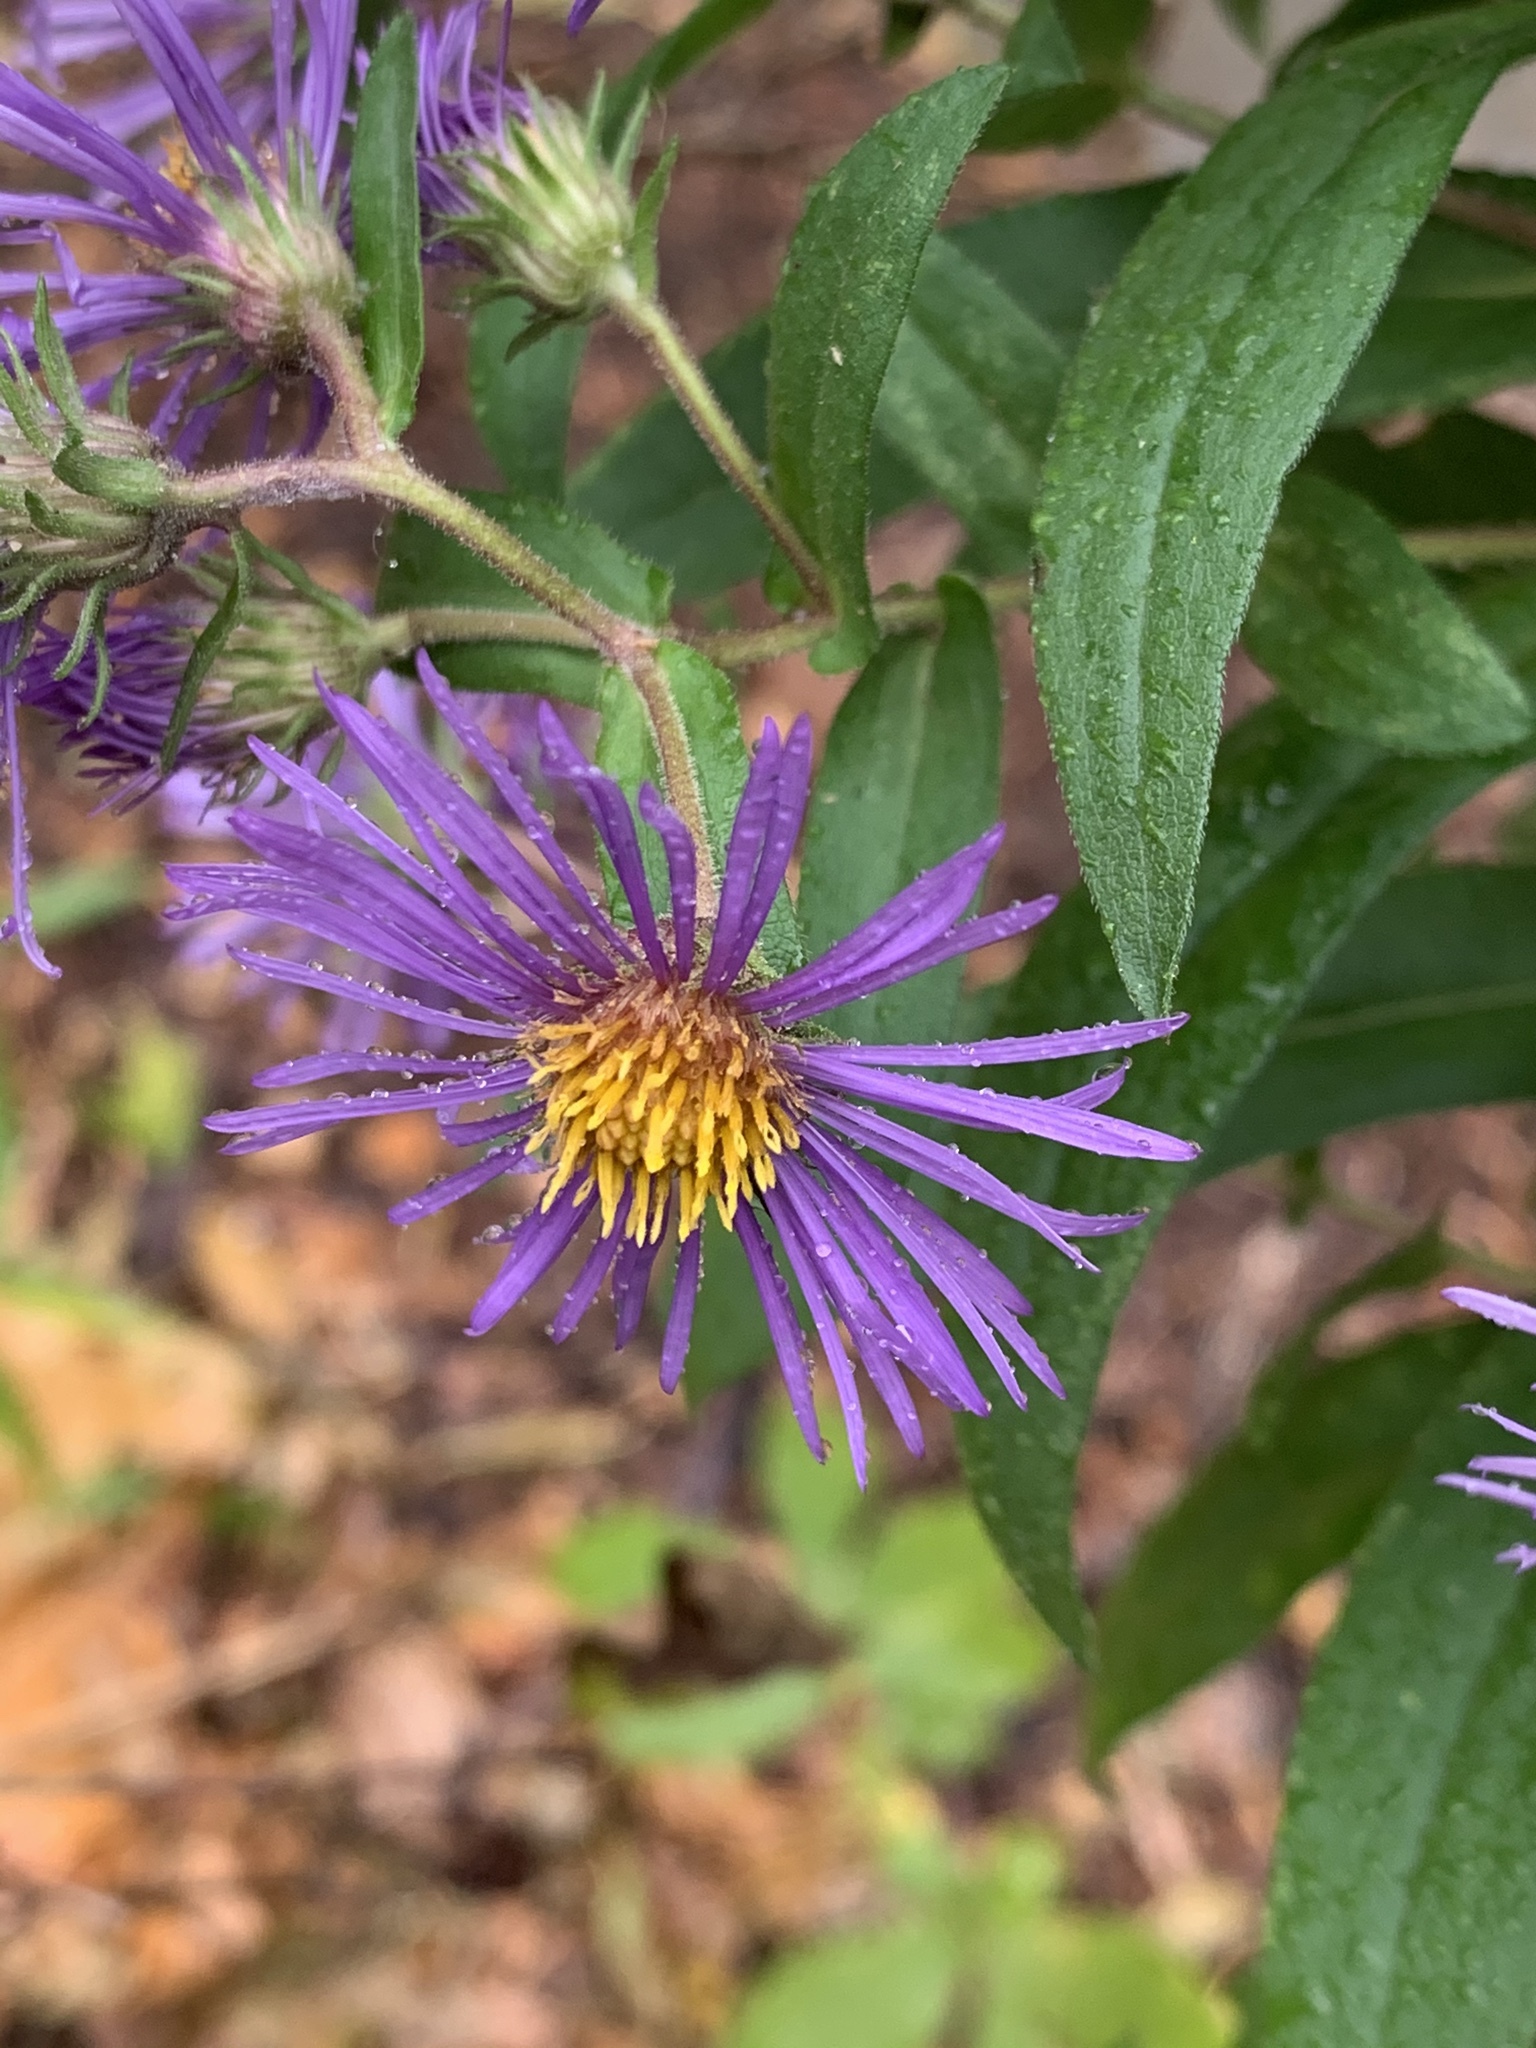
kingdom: Plantae
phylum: Tracheophyta
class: Magnoliopsida
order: Asterales
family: Asteraceae
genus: Symphyotrichum
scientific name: Symphyotrichum novae-angliae
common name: Michaelmas daisy
